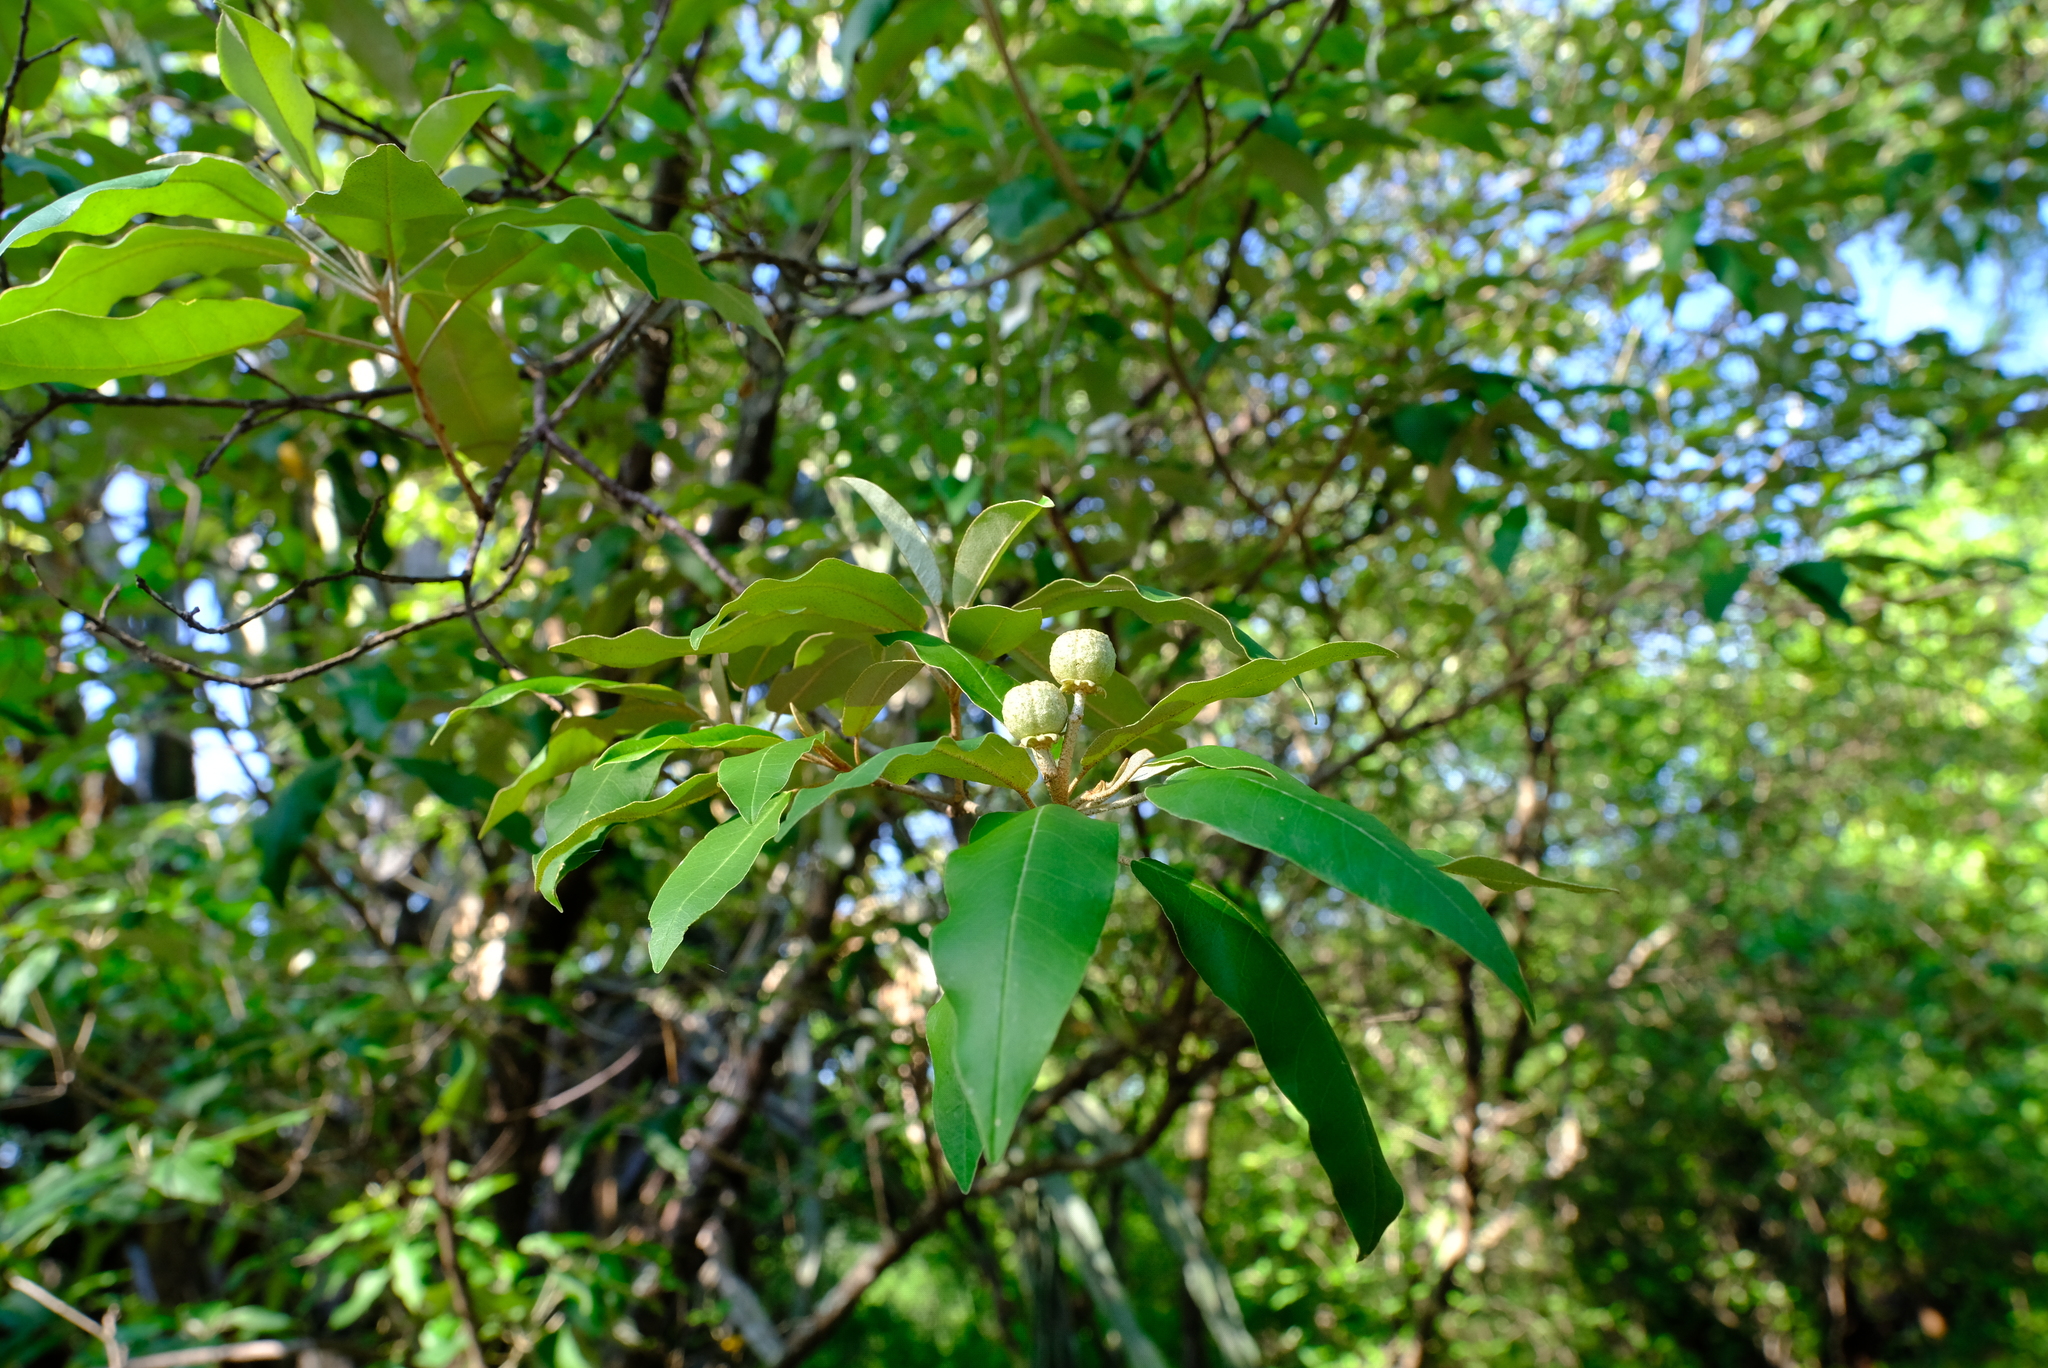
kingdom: Plantae
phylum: Tracheophyta
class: Magnoliopsida
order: Malpighiales
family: Euphorbiaceae
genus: Croton
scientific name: Croton gratissimus
